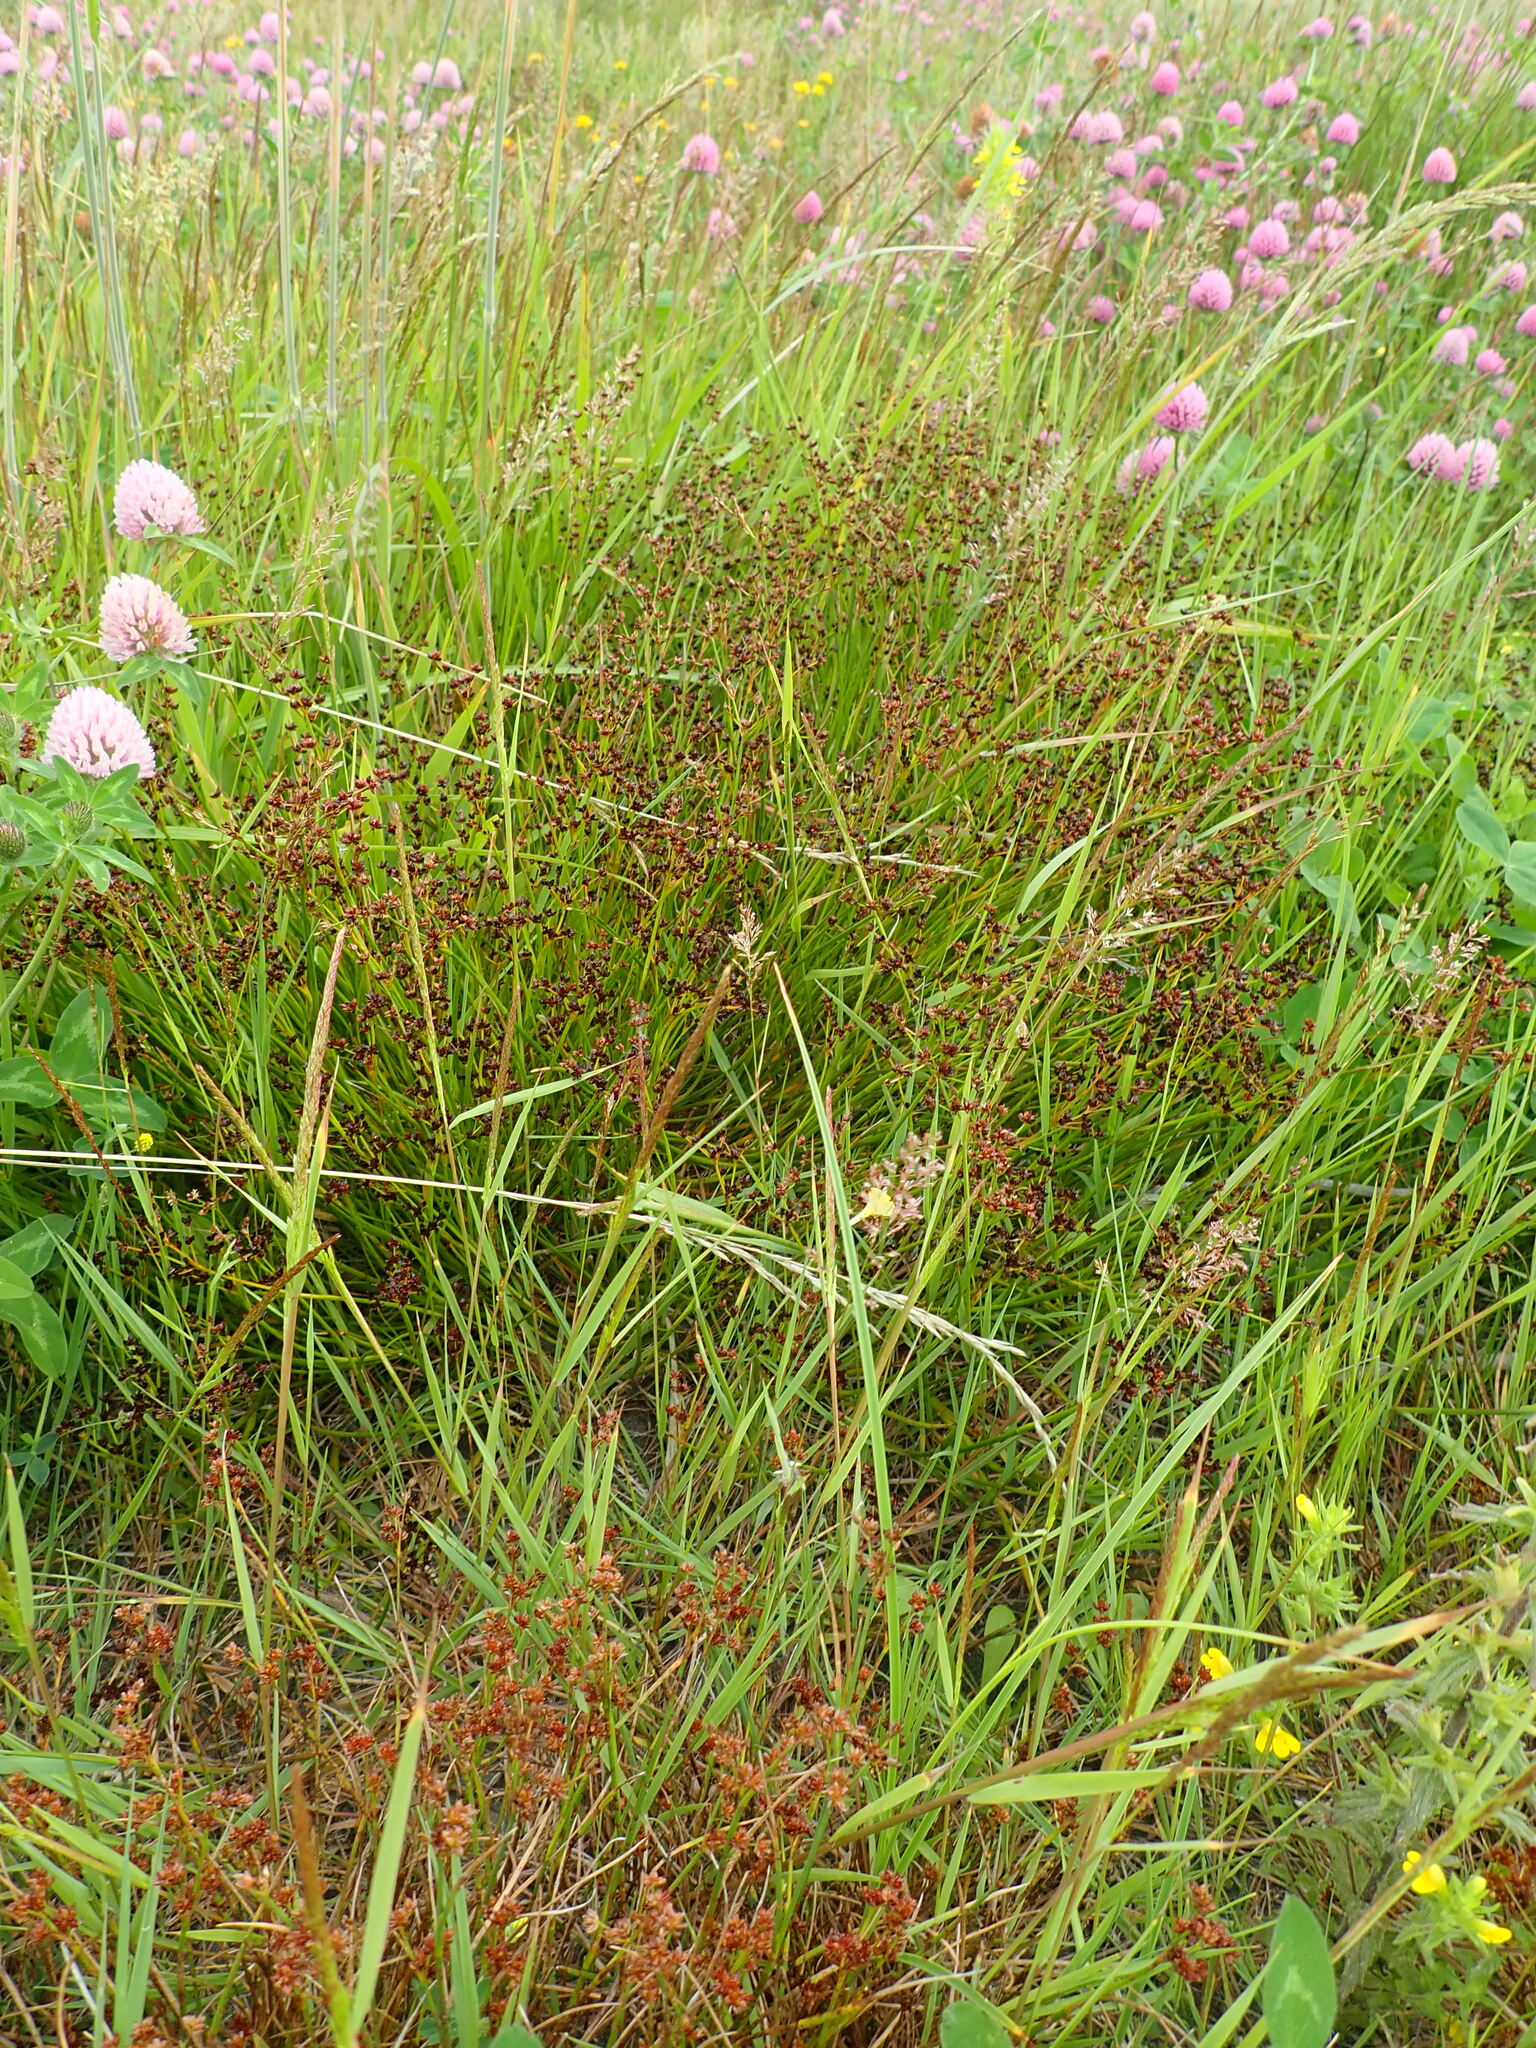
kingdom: Plantae
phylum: Tracheophyta
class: Liliopsida
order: Poales
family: Juncaceae
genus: Juncus
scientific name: Juncus articulatus
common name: Jointed rush
